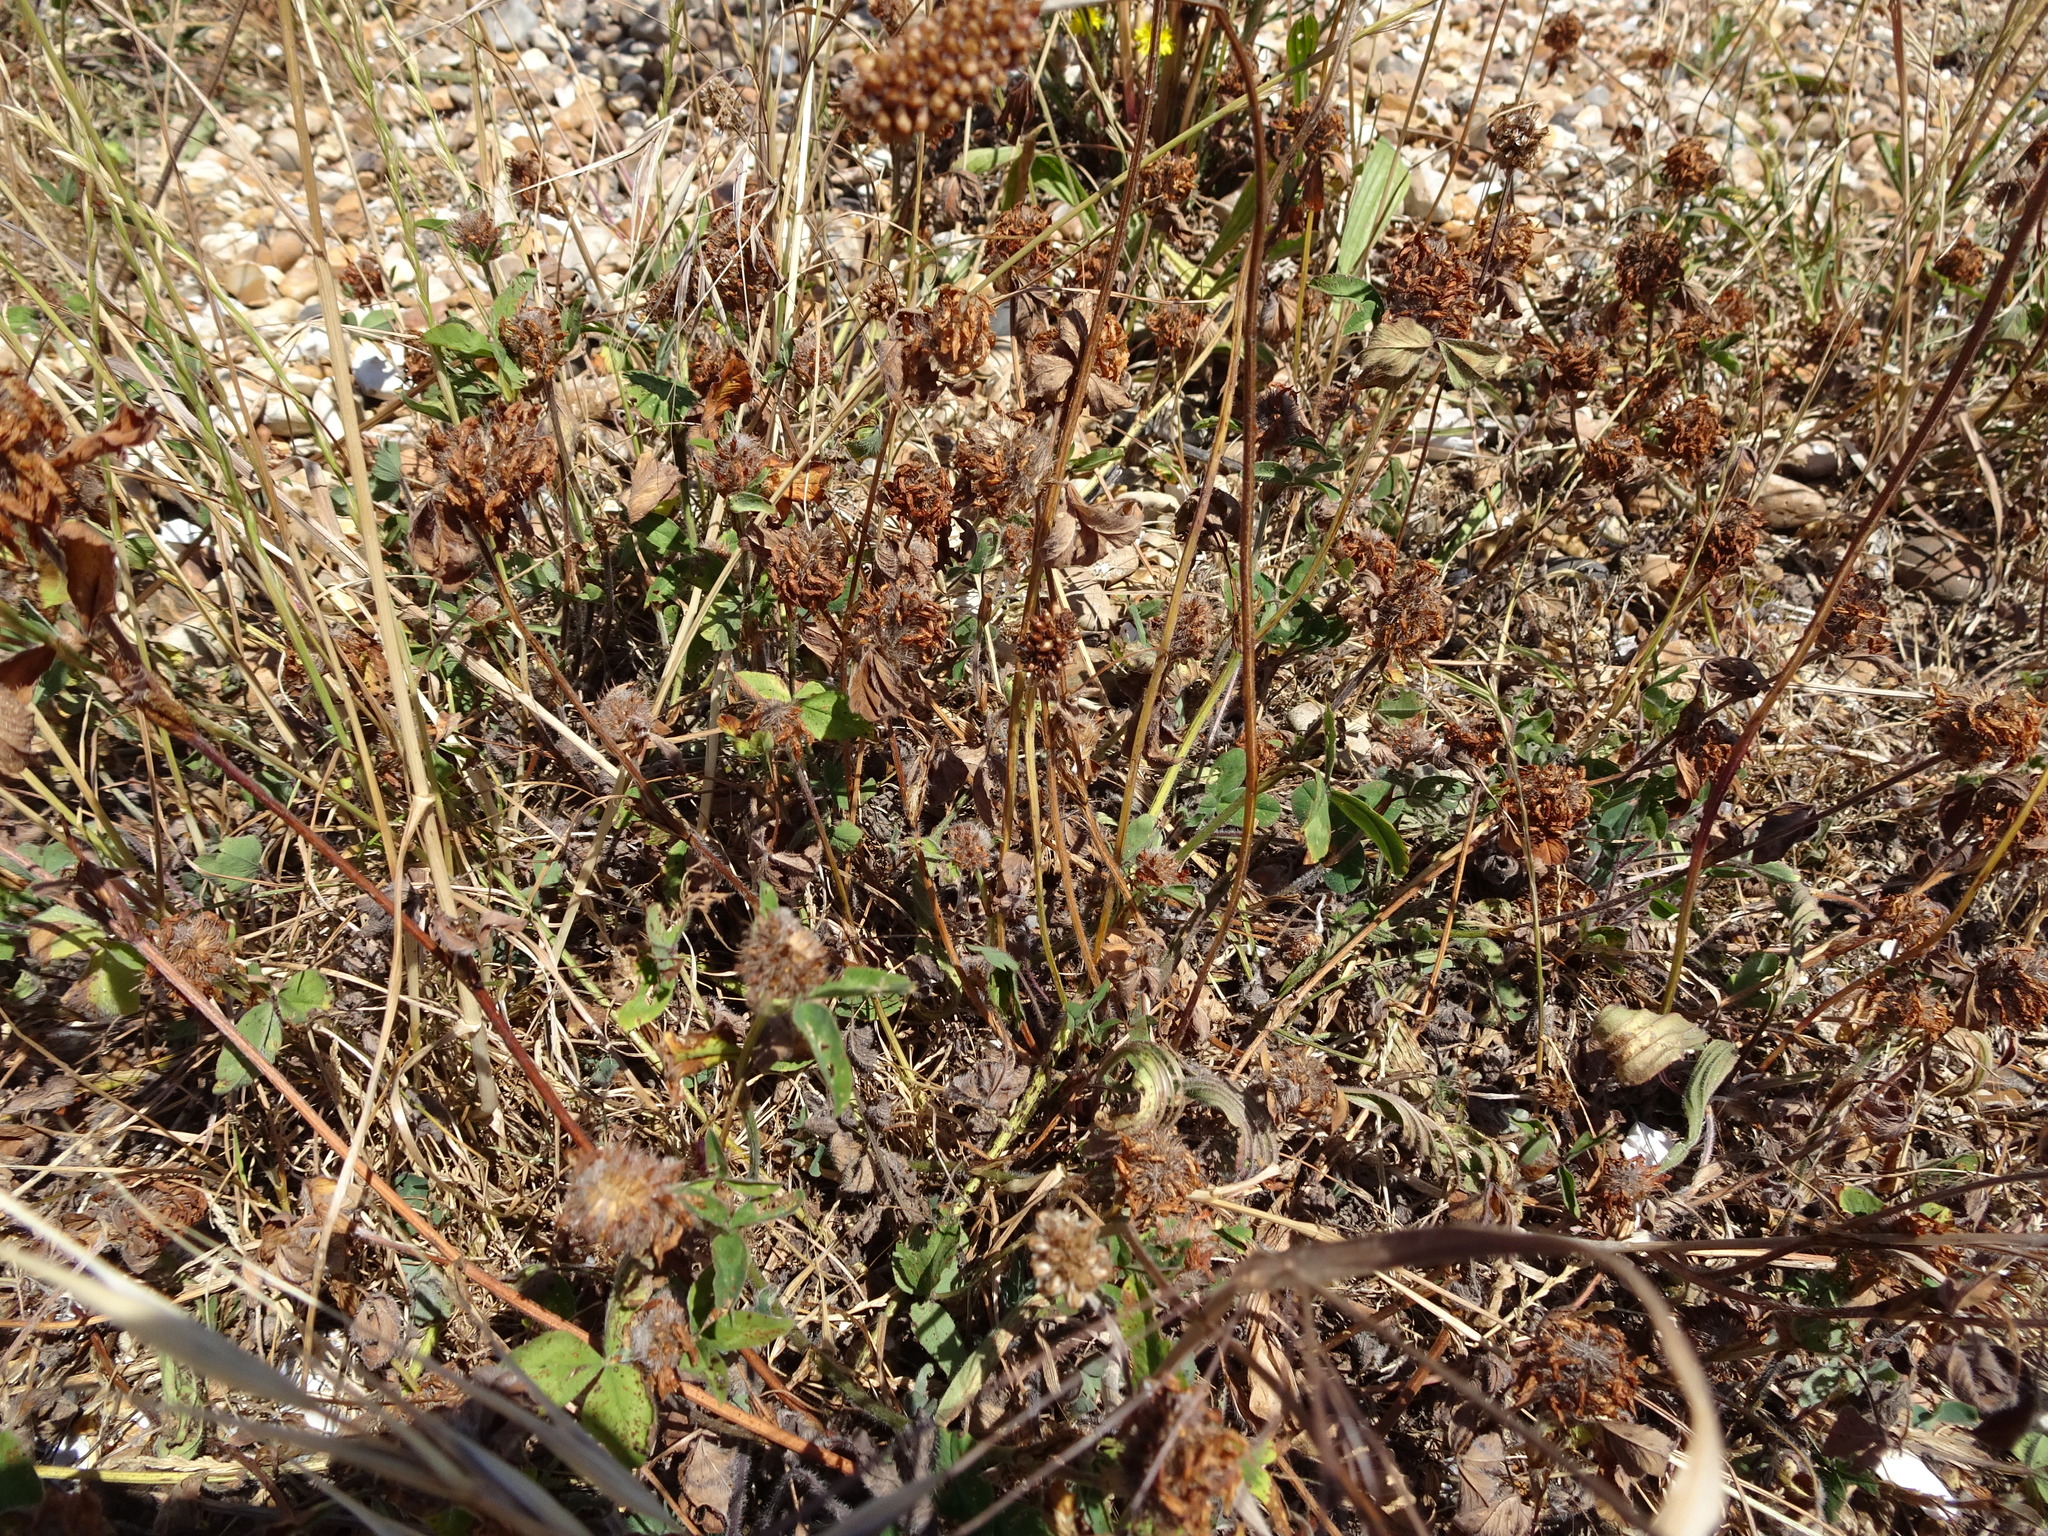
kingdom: Plantae
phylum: Tracheophyta
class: Magnoliopsida
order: Fabales
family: Fabaceae
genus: Trifolium
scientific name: Trifolium repens
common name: White clover
